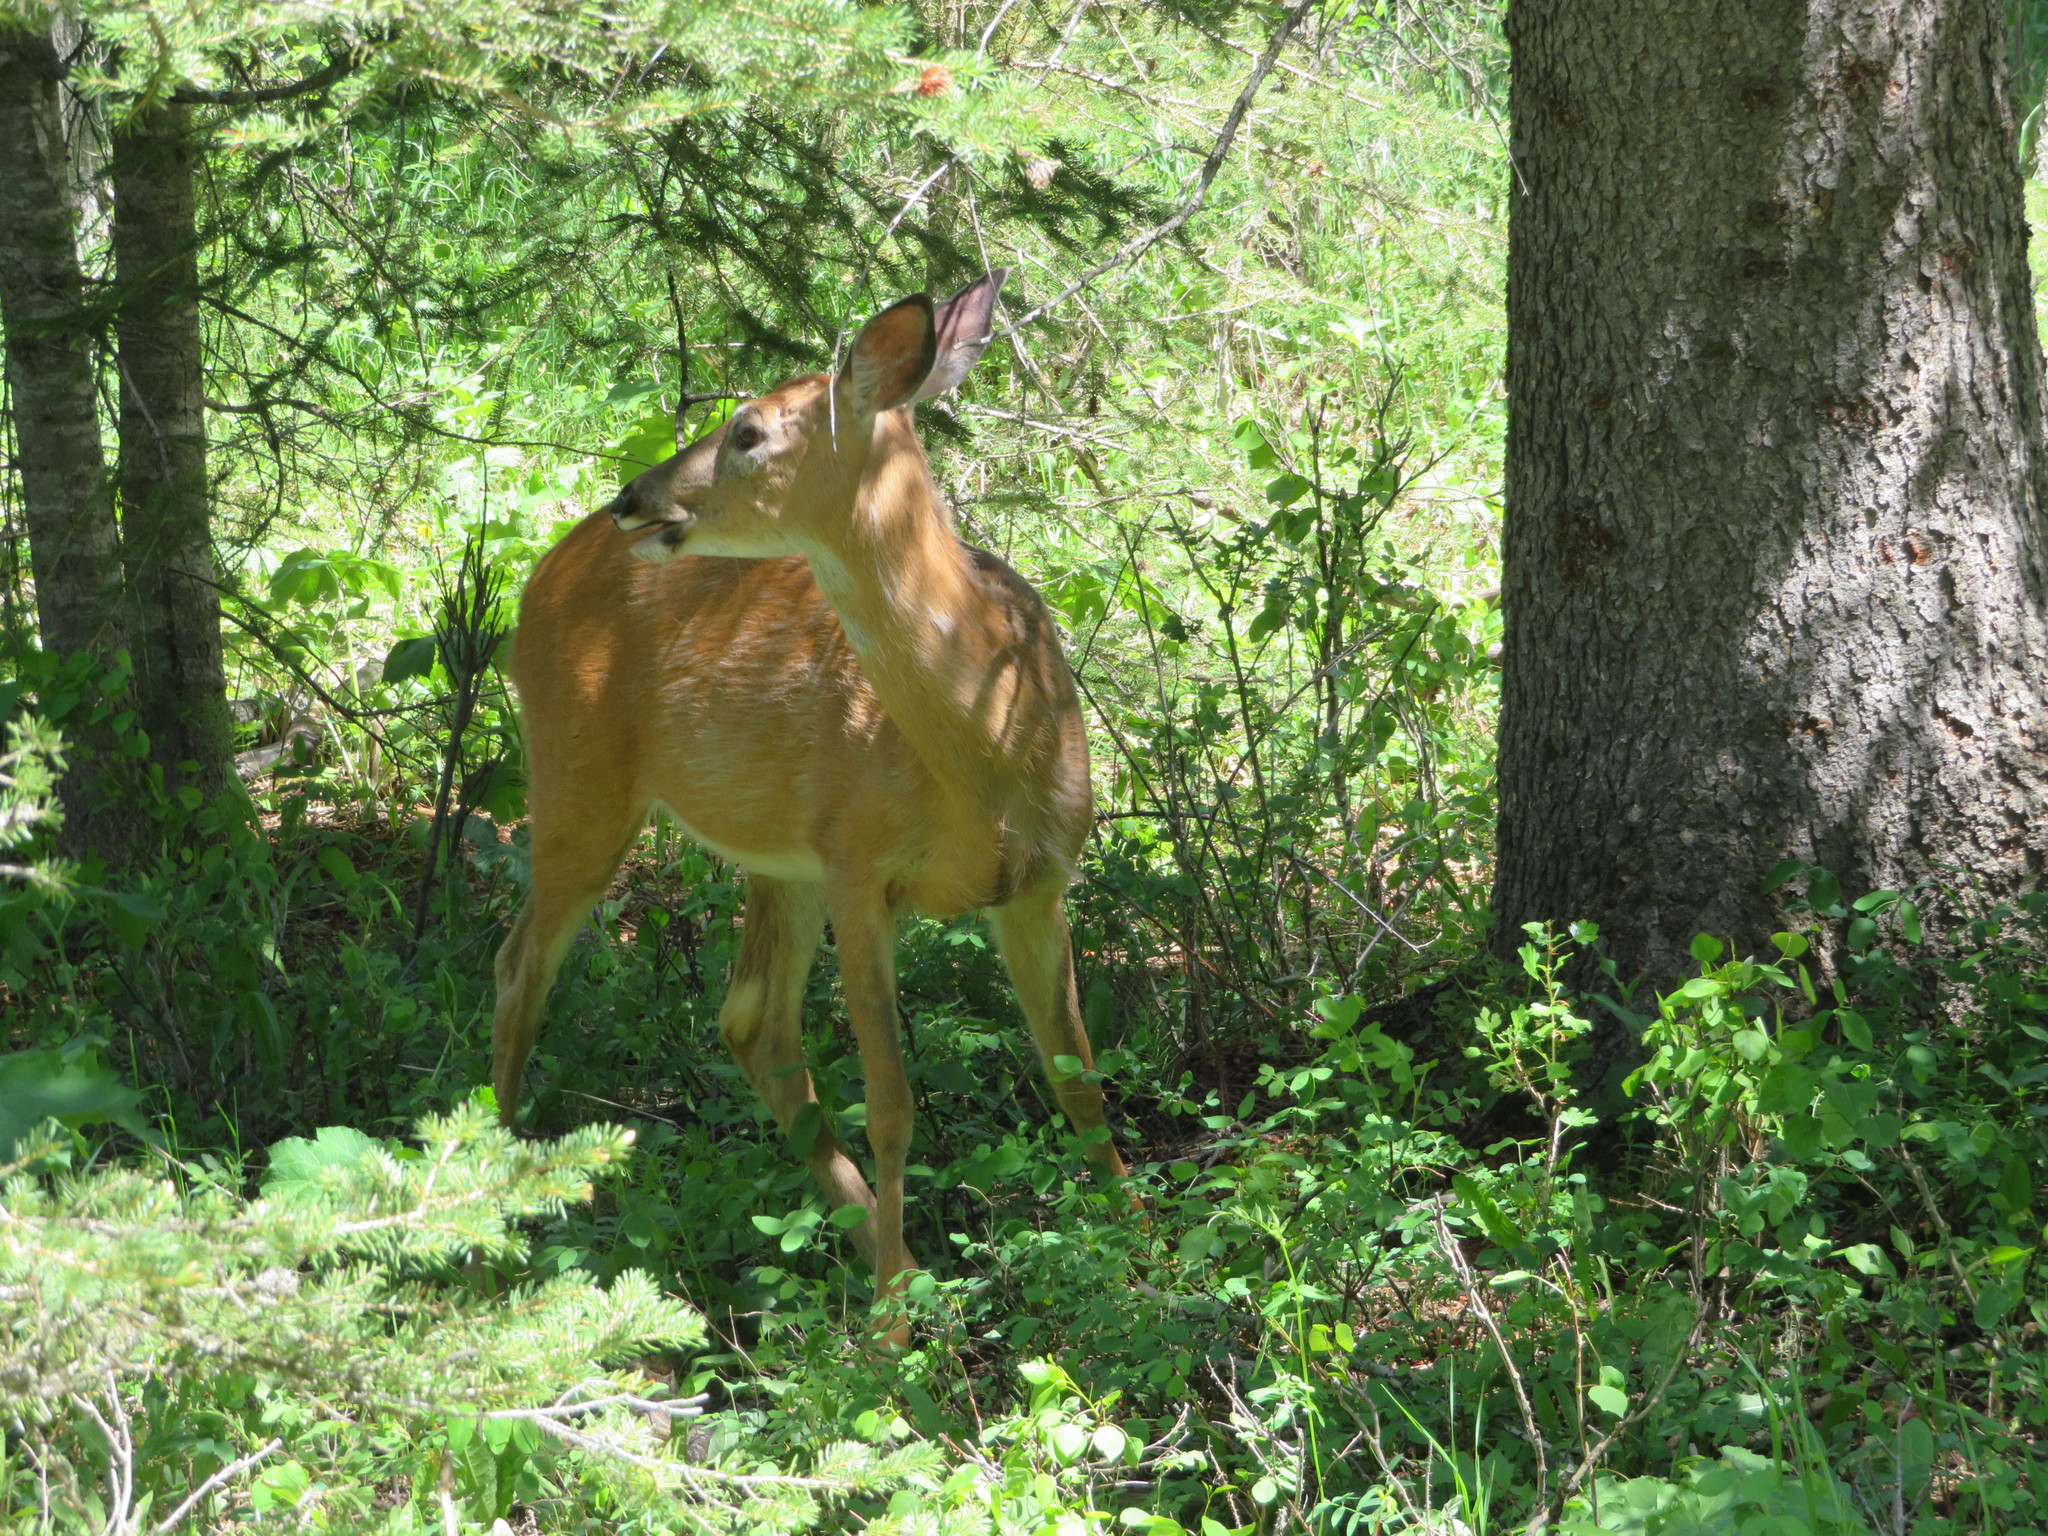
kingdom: Animalia
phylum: Chordata
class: Mammalia
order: Artiodactyla
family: Cervidae
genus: Odocoileus
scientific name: Odocoileus virginianus
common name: White-tailed deer
